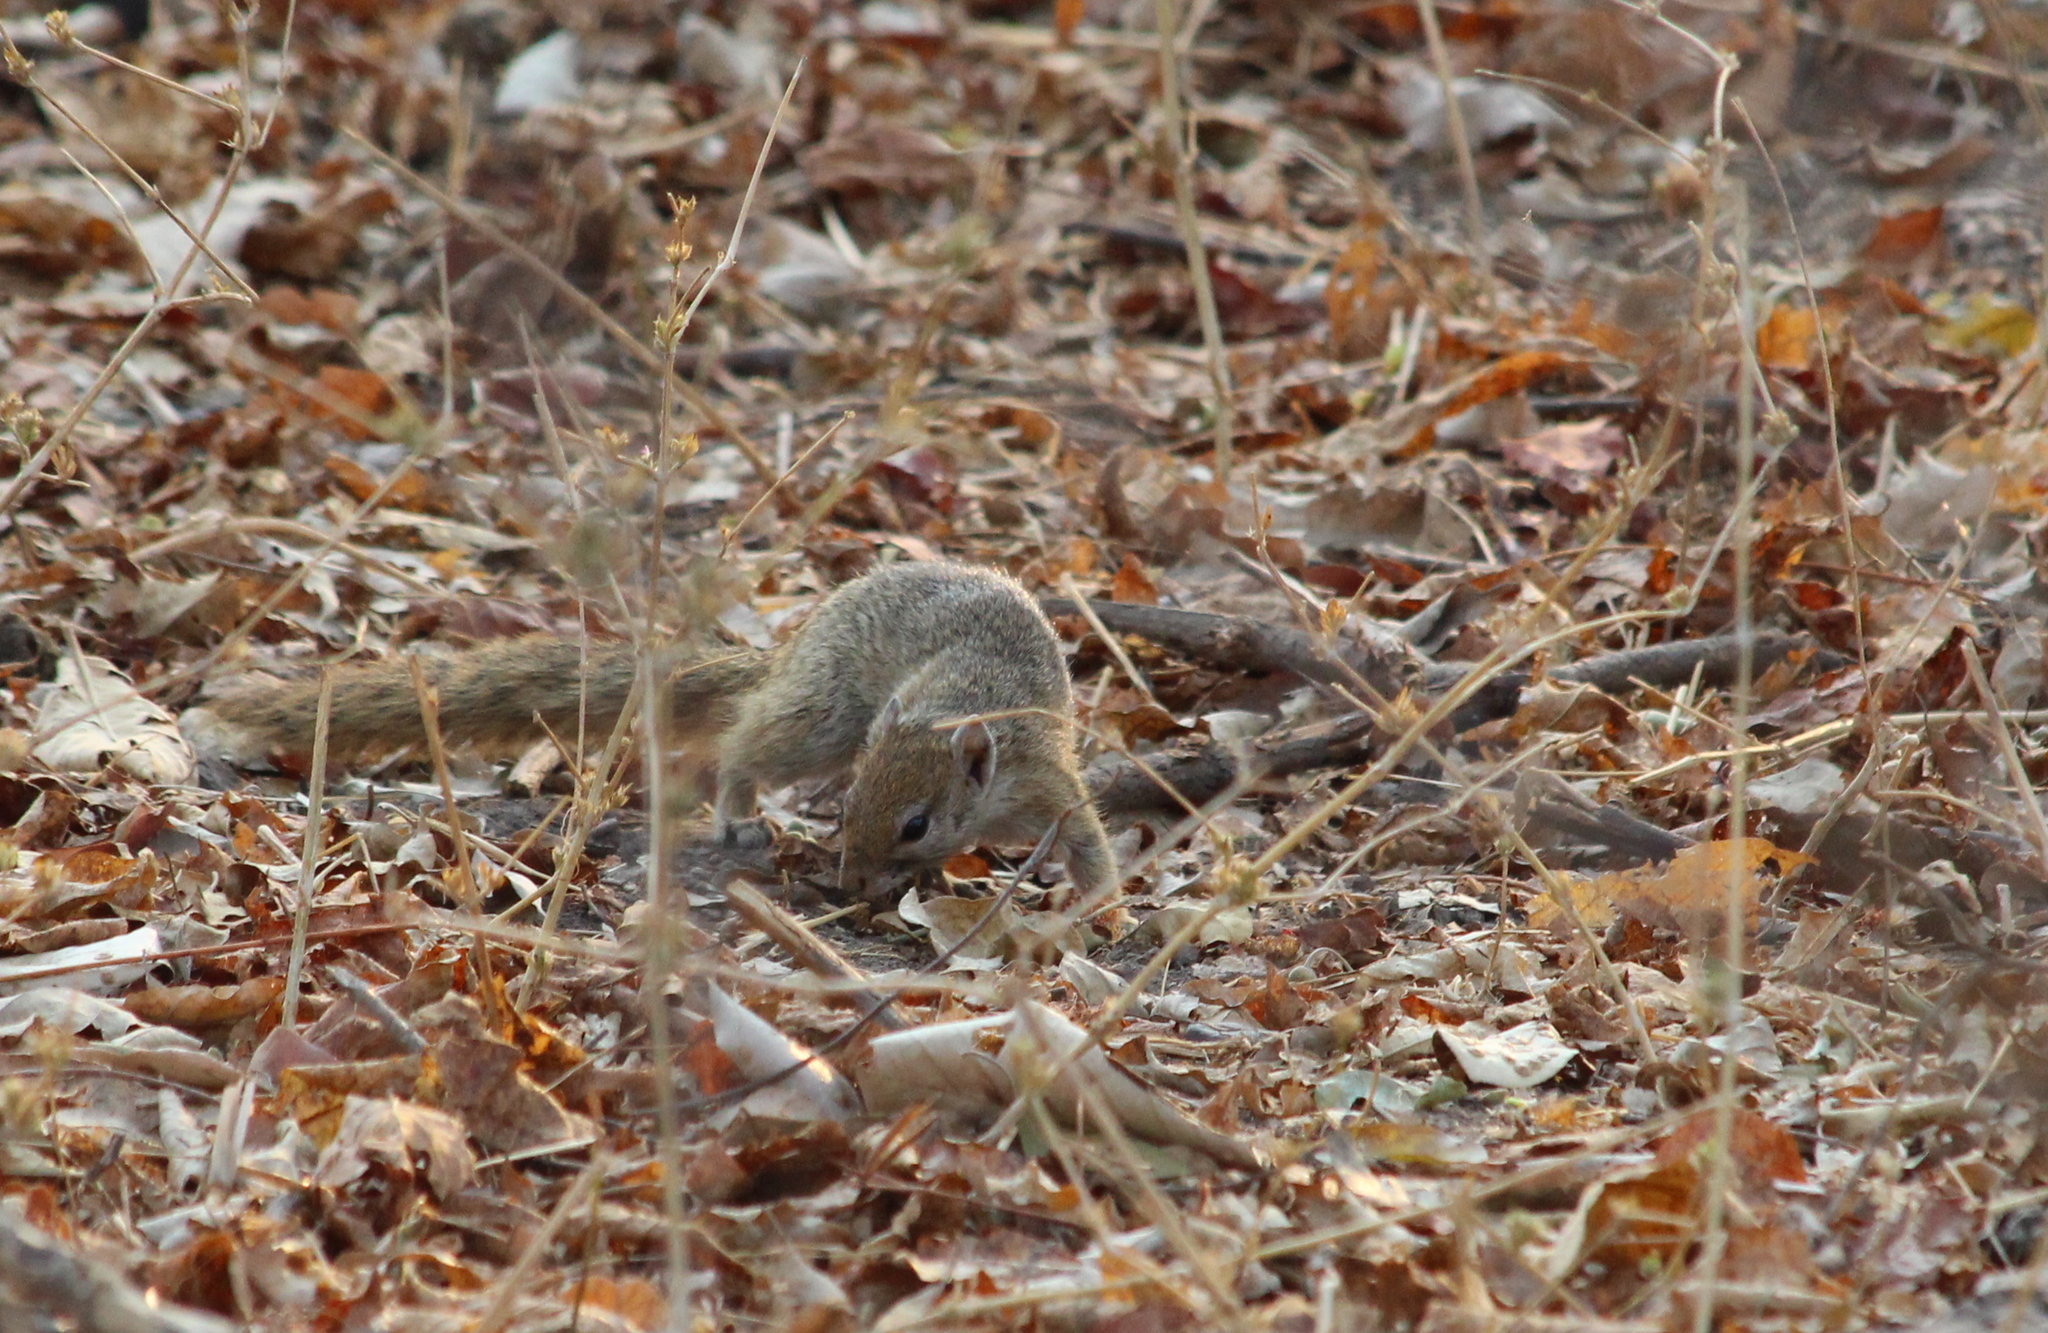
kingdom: Animalia
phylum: Chordata
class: Mammalia
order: Rodentia
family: Sciuridae
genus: Paraxerus
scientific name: Paraxerus cepapi
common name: Smith's bush squirrel
